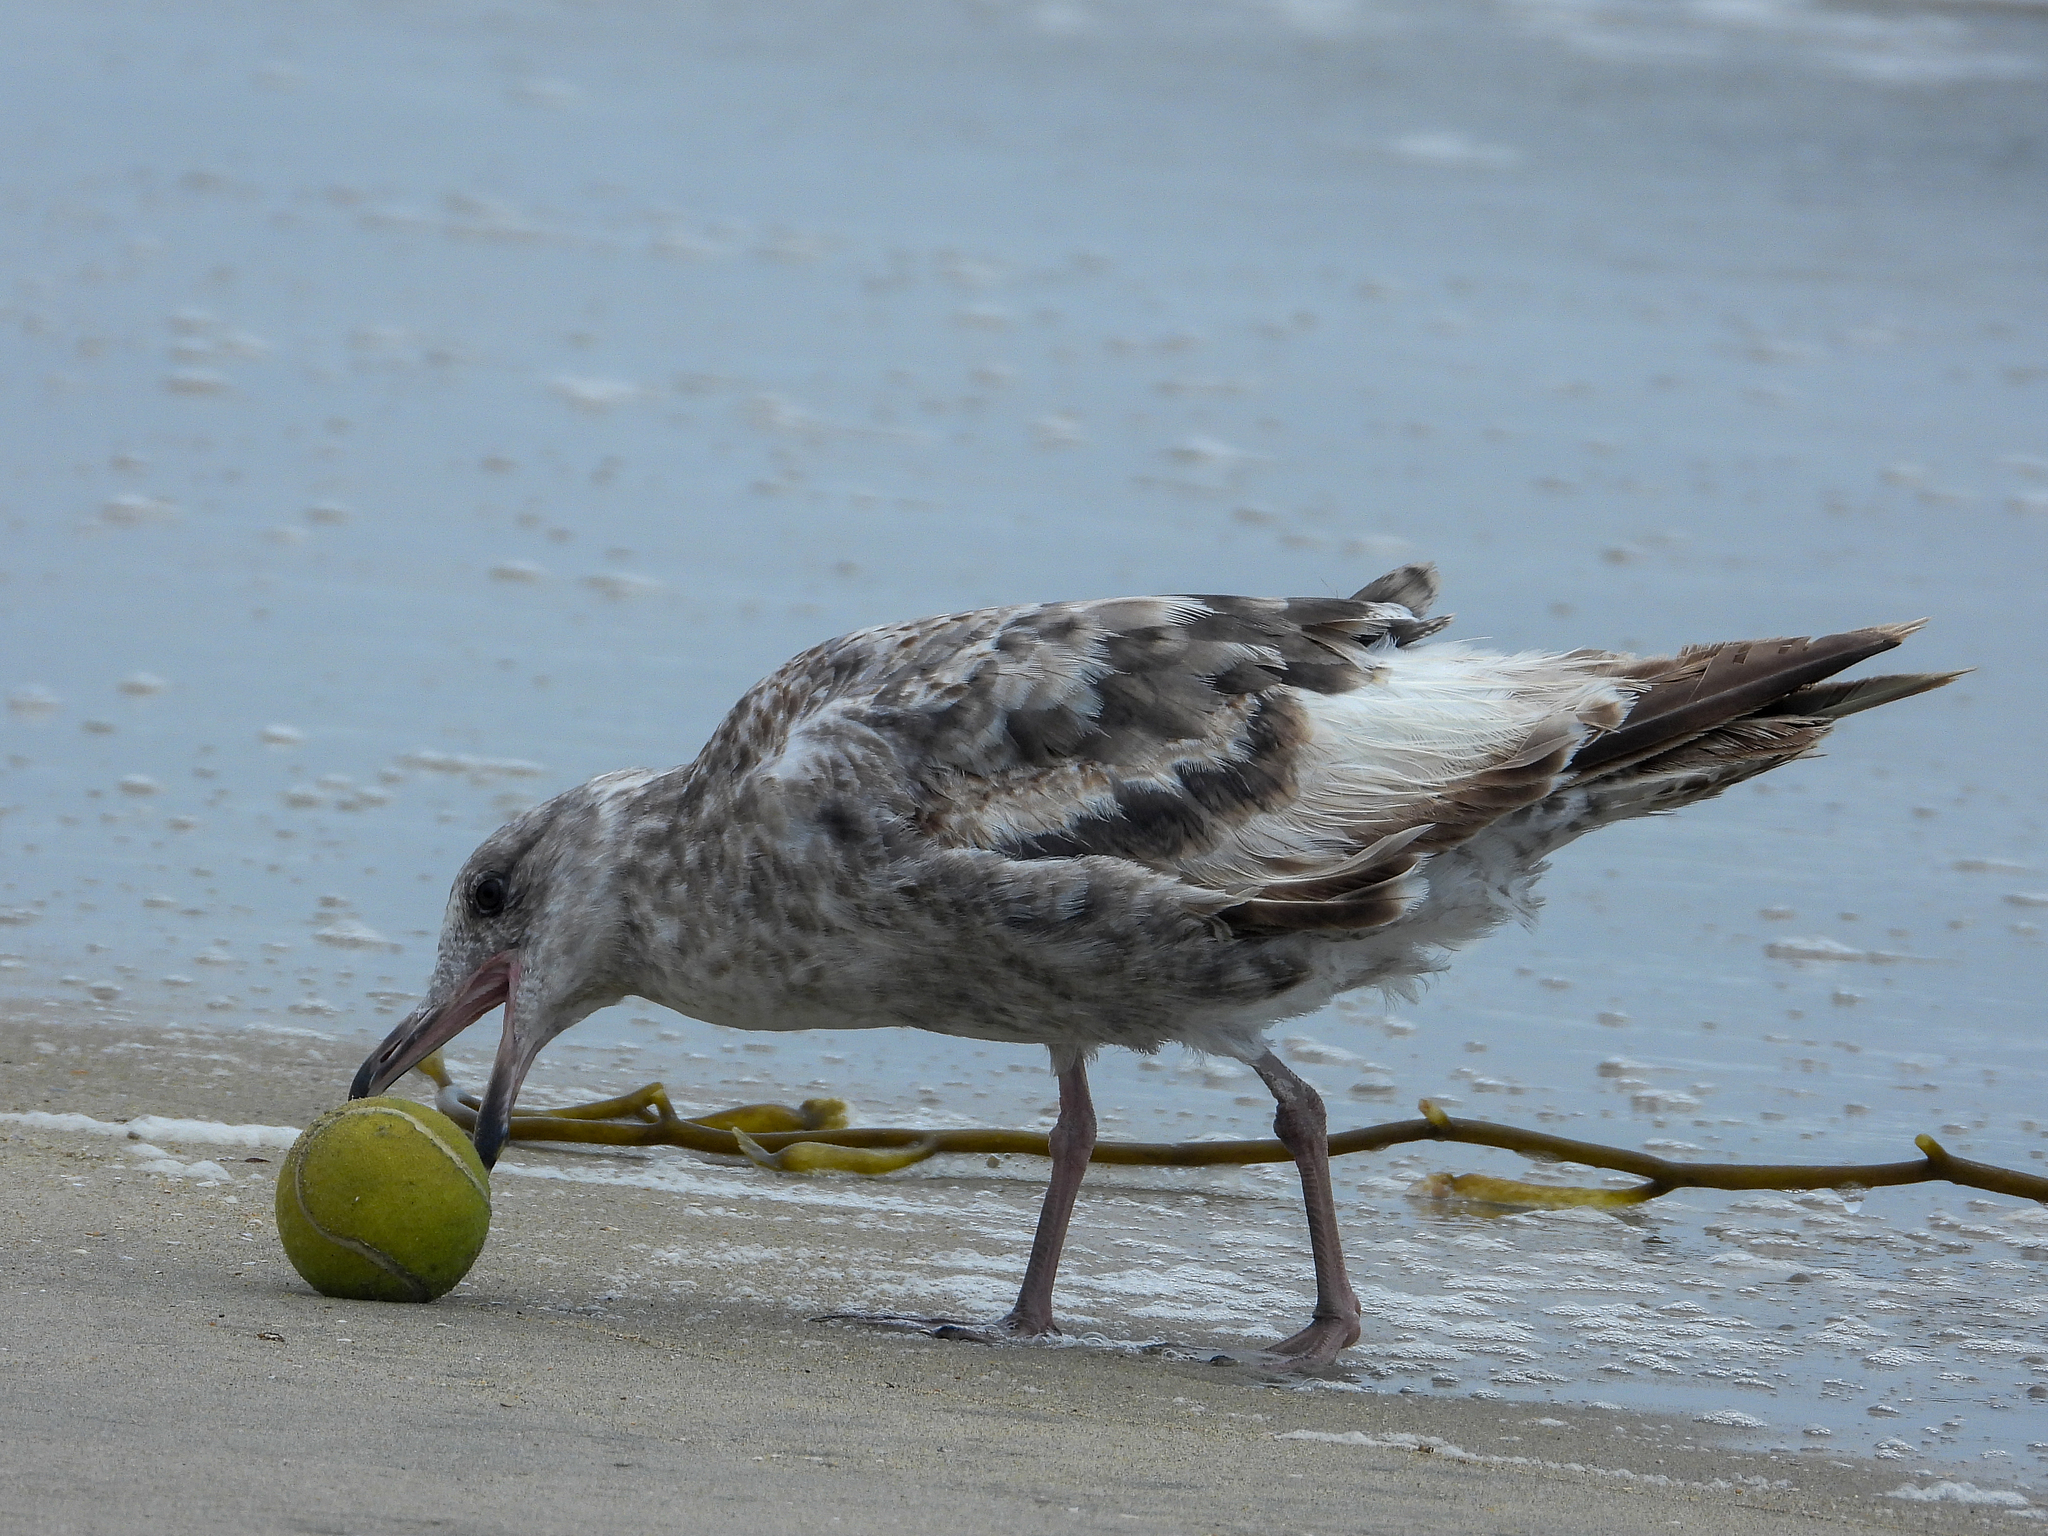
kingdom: Animalia
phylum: Chordata
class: Aves
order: Charadriiformes
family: Laridae
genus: Larus
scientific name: Larus occidentalis
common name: Western gull
